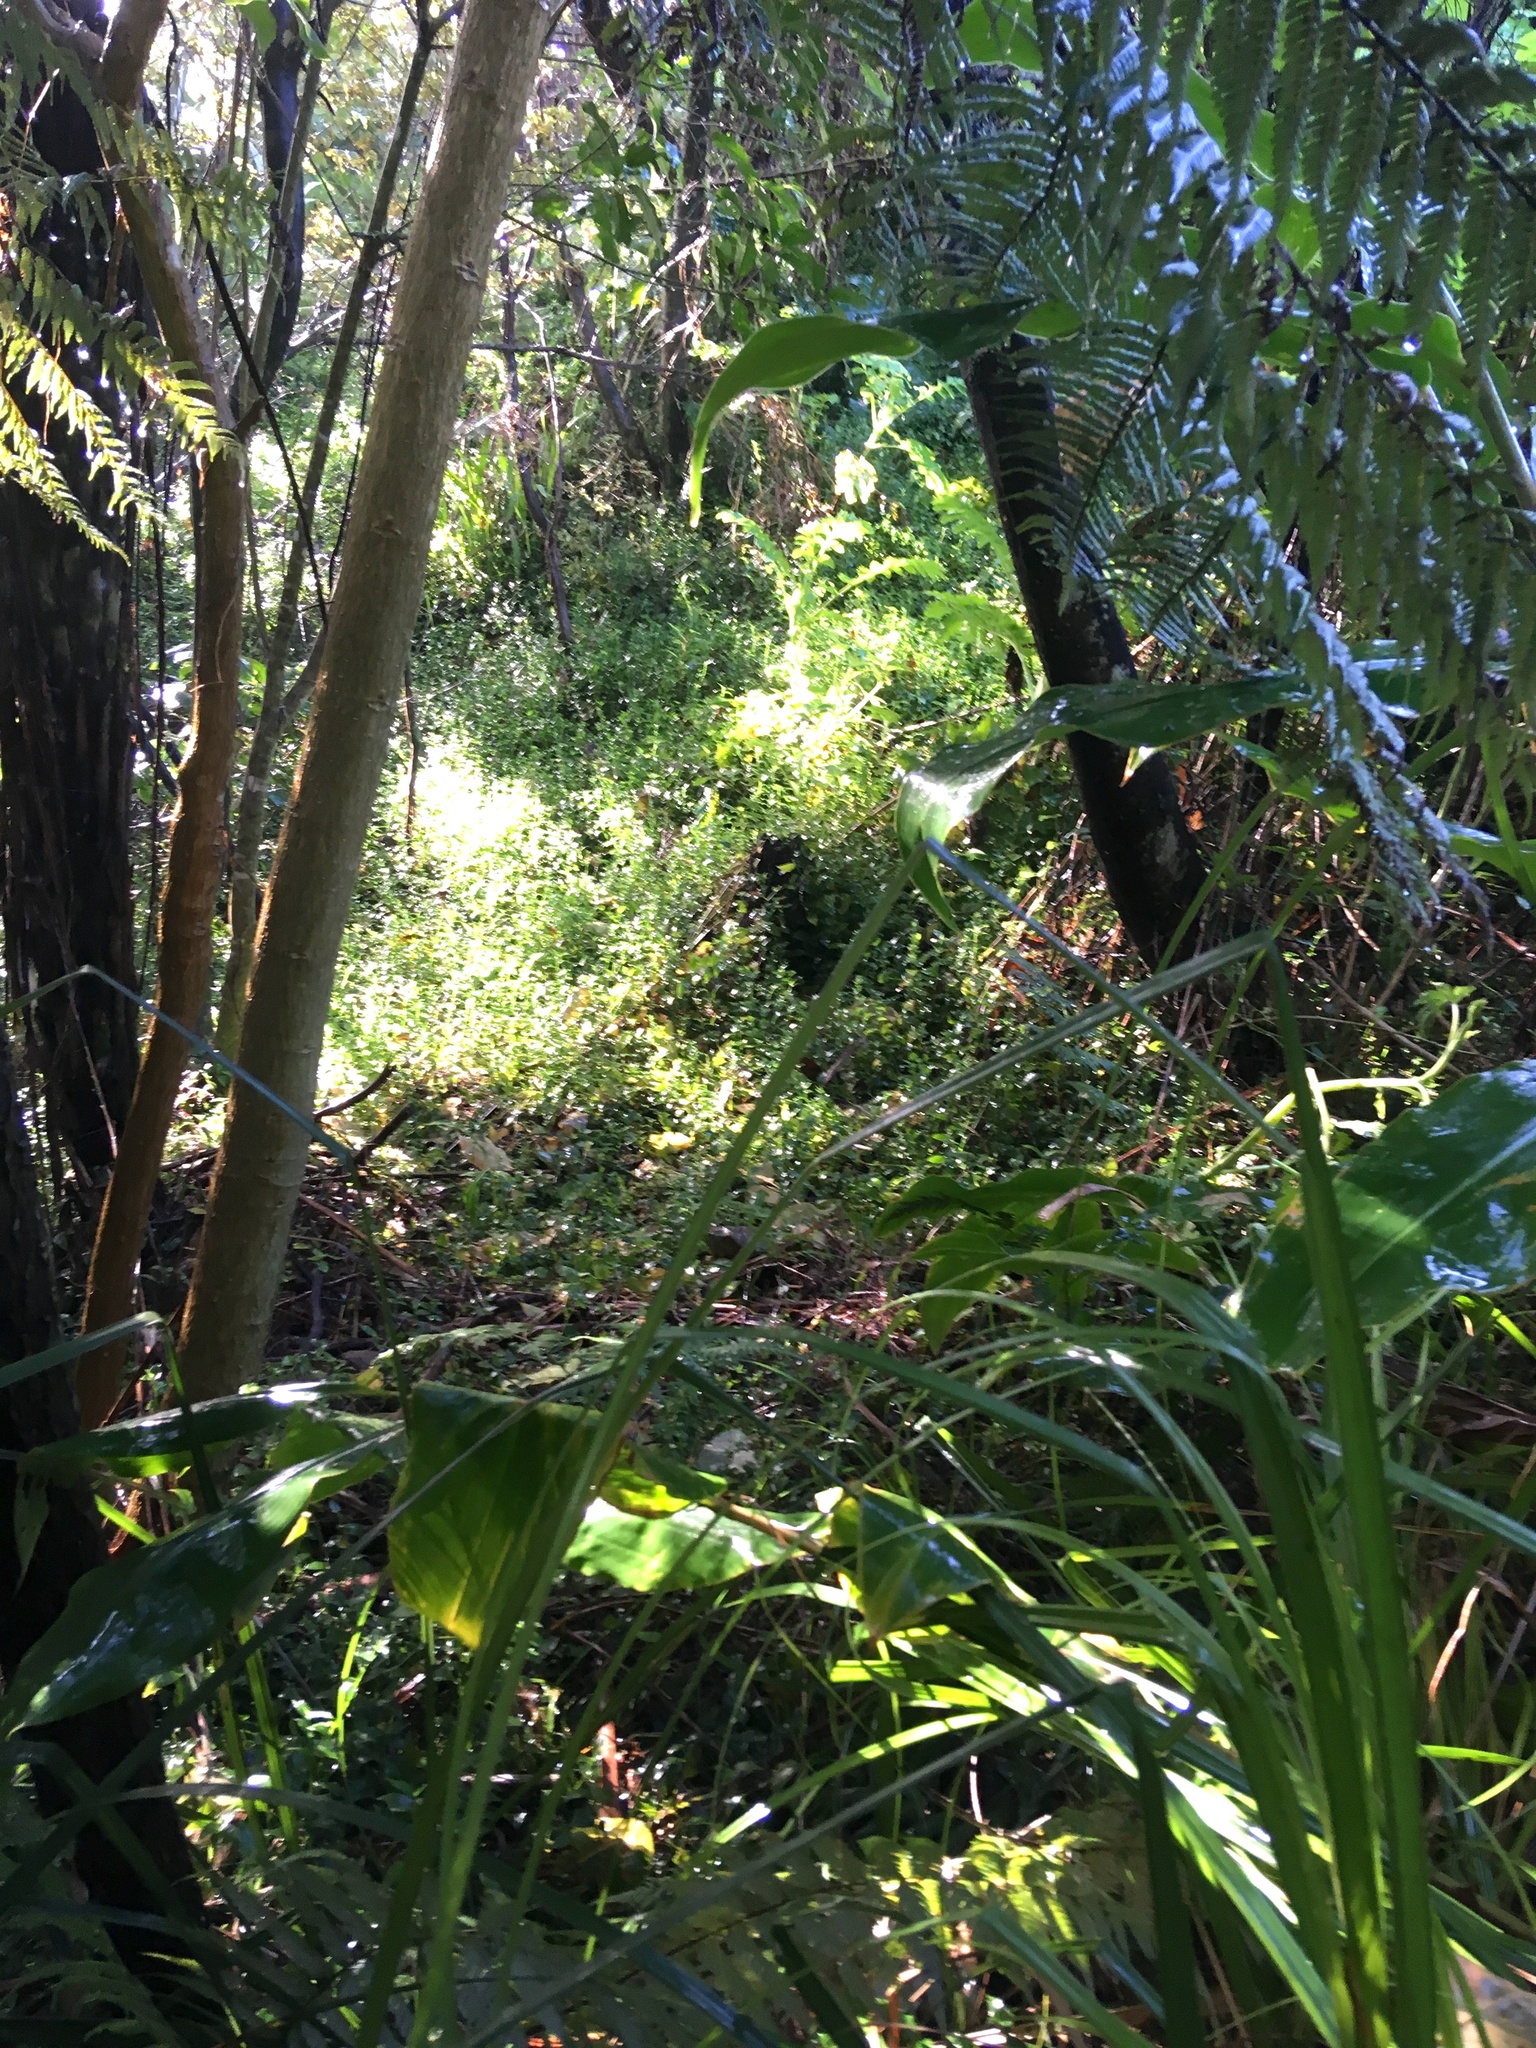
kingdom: Plantae
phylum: Tracheophyta
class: Liliopsida
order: Zingiberales
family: Zingiberaceae
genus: Hedychium
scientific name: Hedychium gardnerianum
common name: Himalayan ginger
